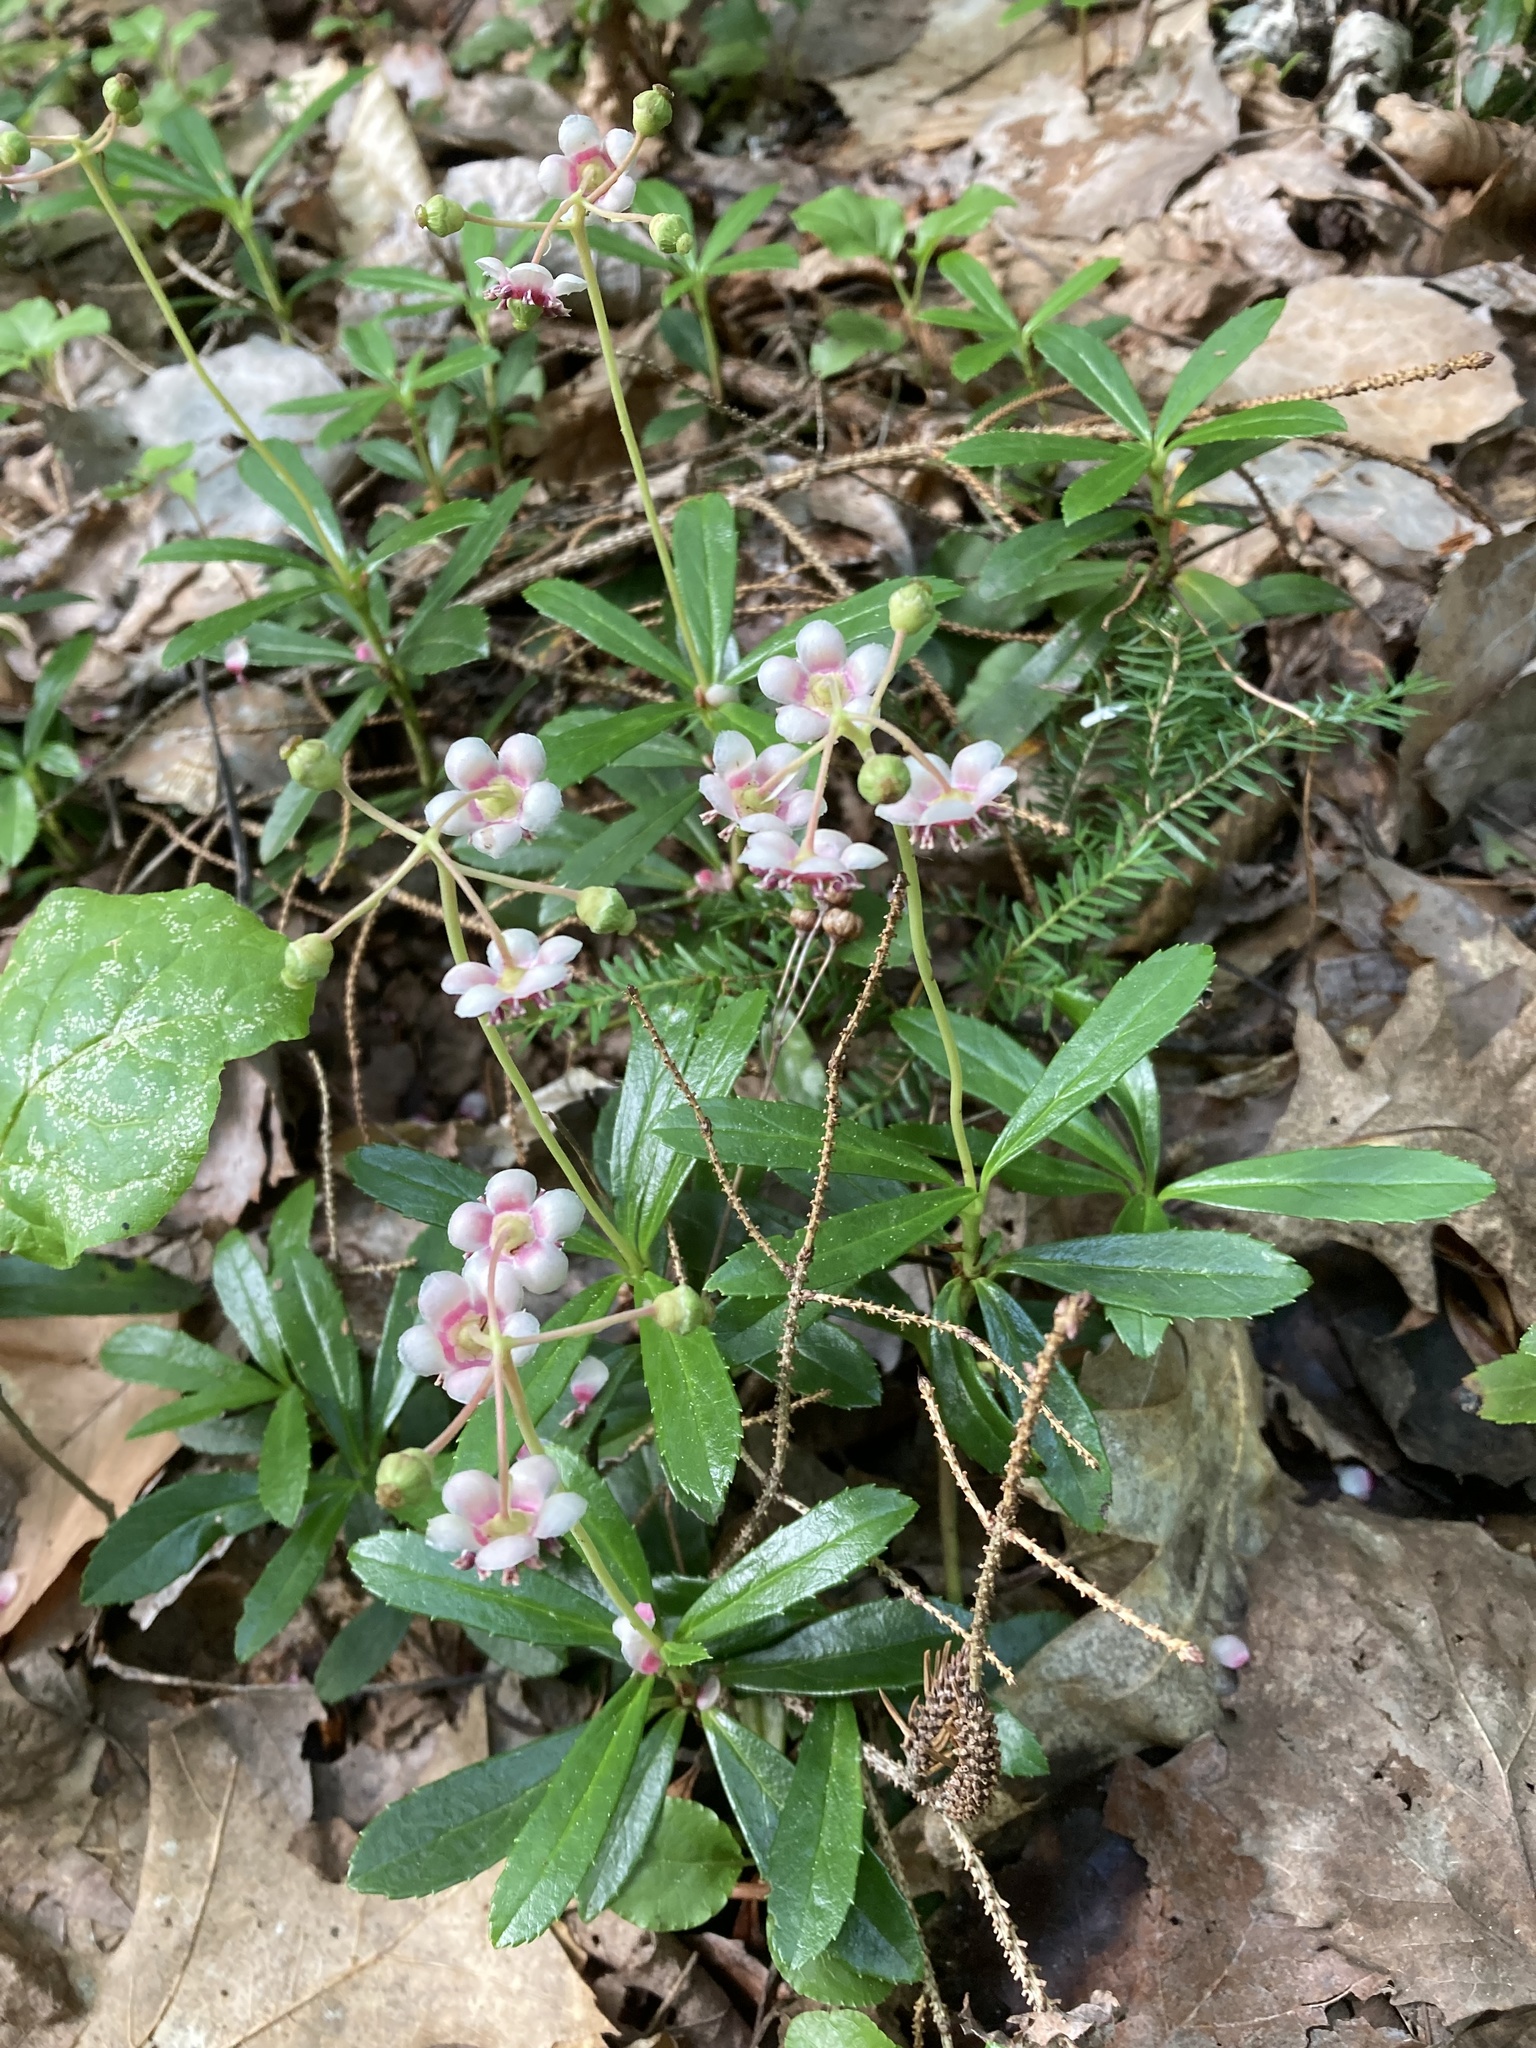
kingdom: Plantae
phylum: Tracheophyta
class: Magnoliopsida
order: Ericales
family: Ericaceae
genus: Chimaphila
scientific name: Chimaphila umbellata
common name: Pipsissewa
